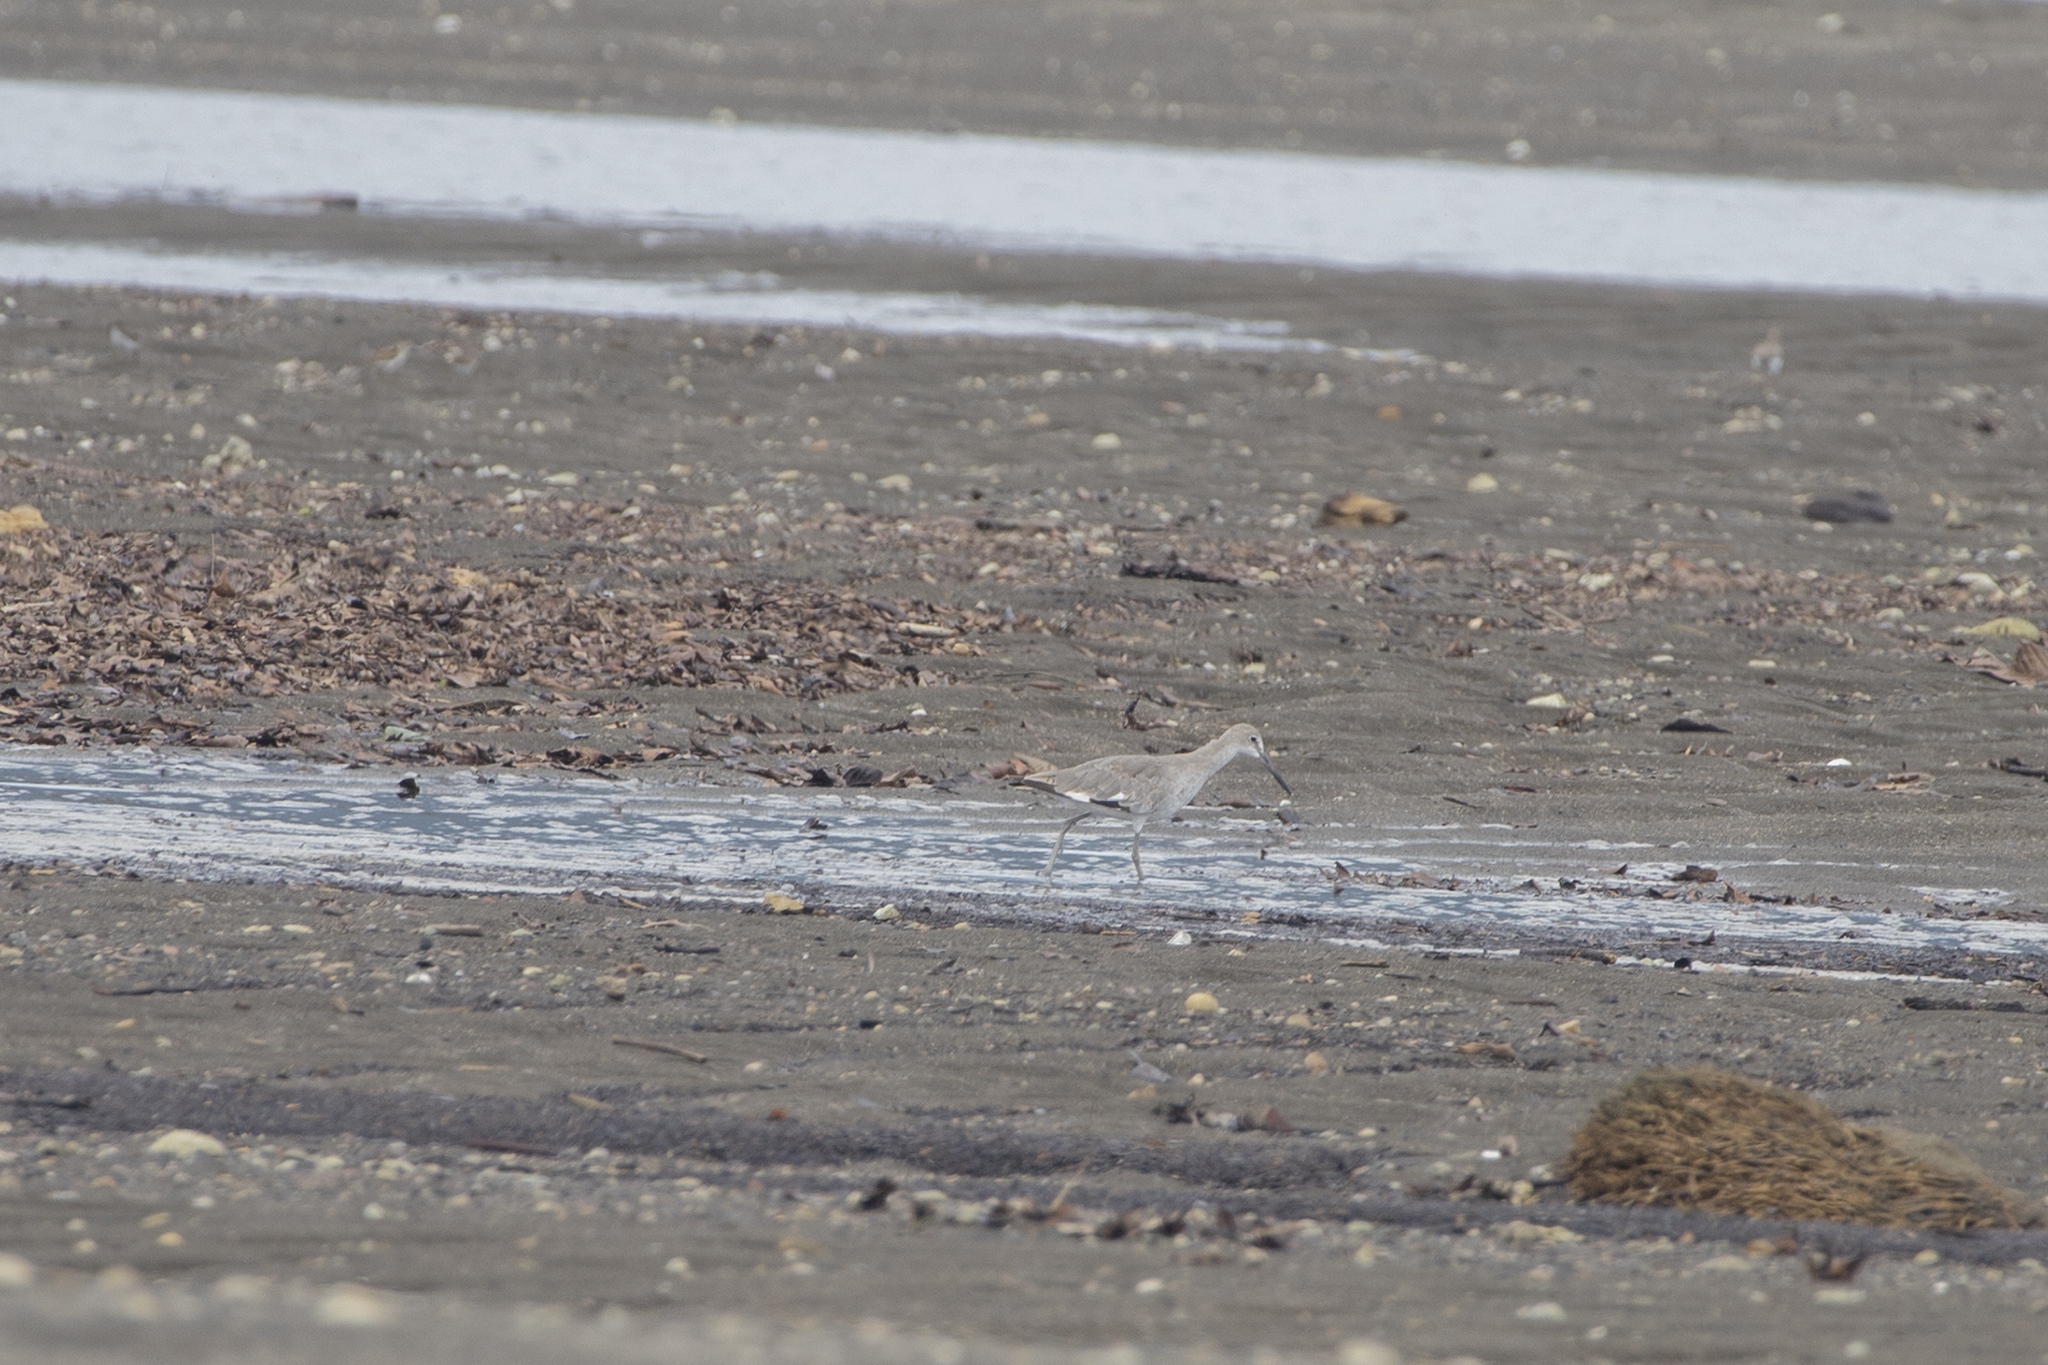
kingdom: Animalia
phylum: Chordata
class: Aves
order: Charadriiformes
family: Scolopacidae
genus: Tringa
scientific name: Tringa semipalmata
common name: Willet
